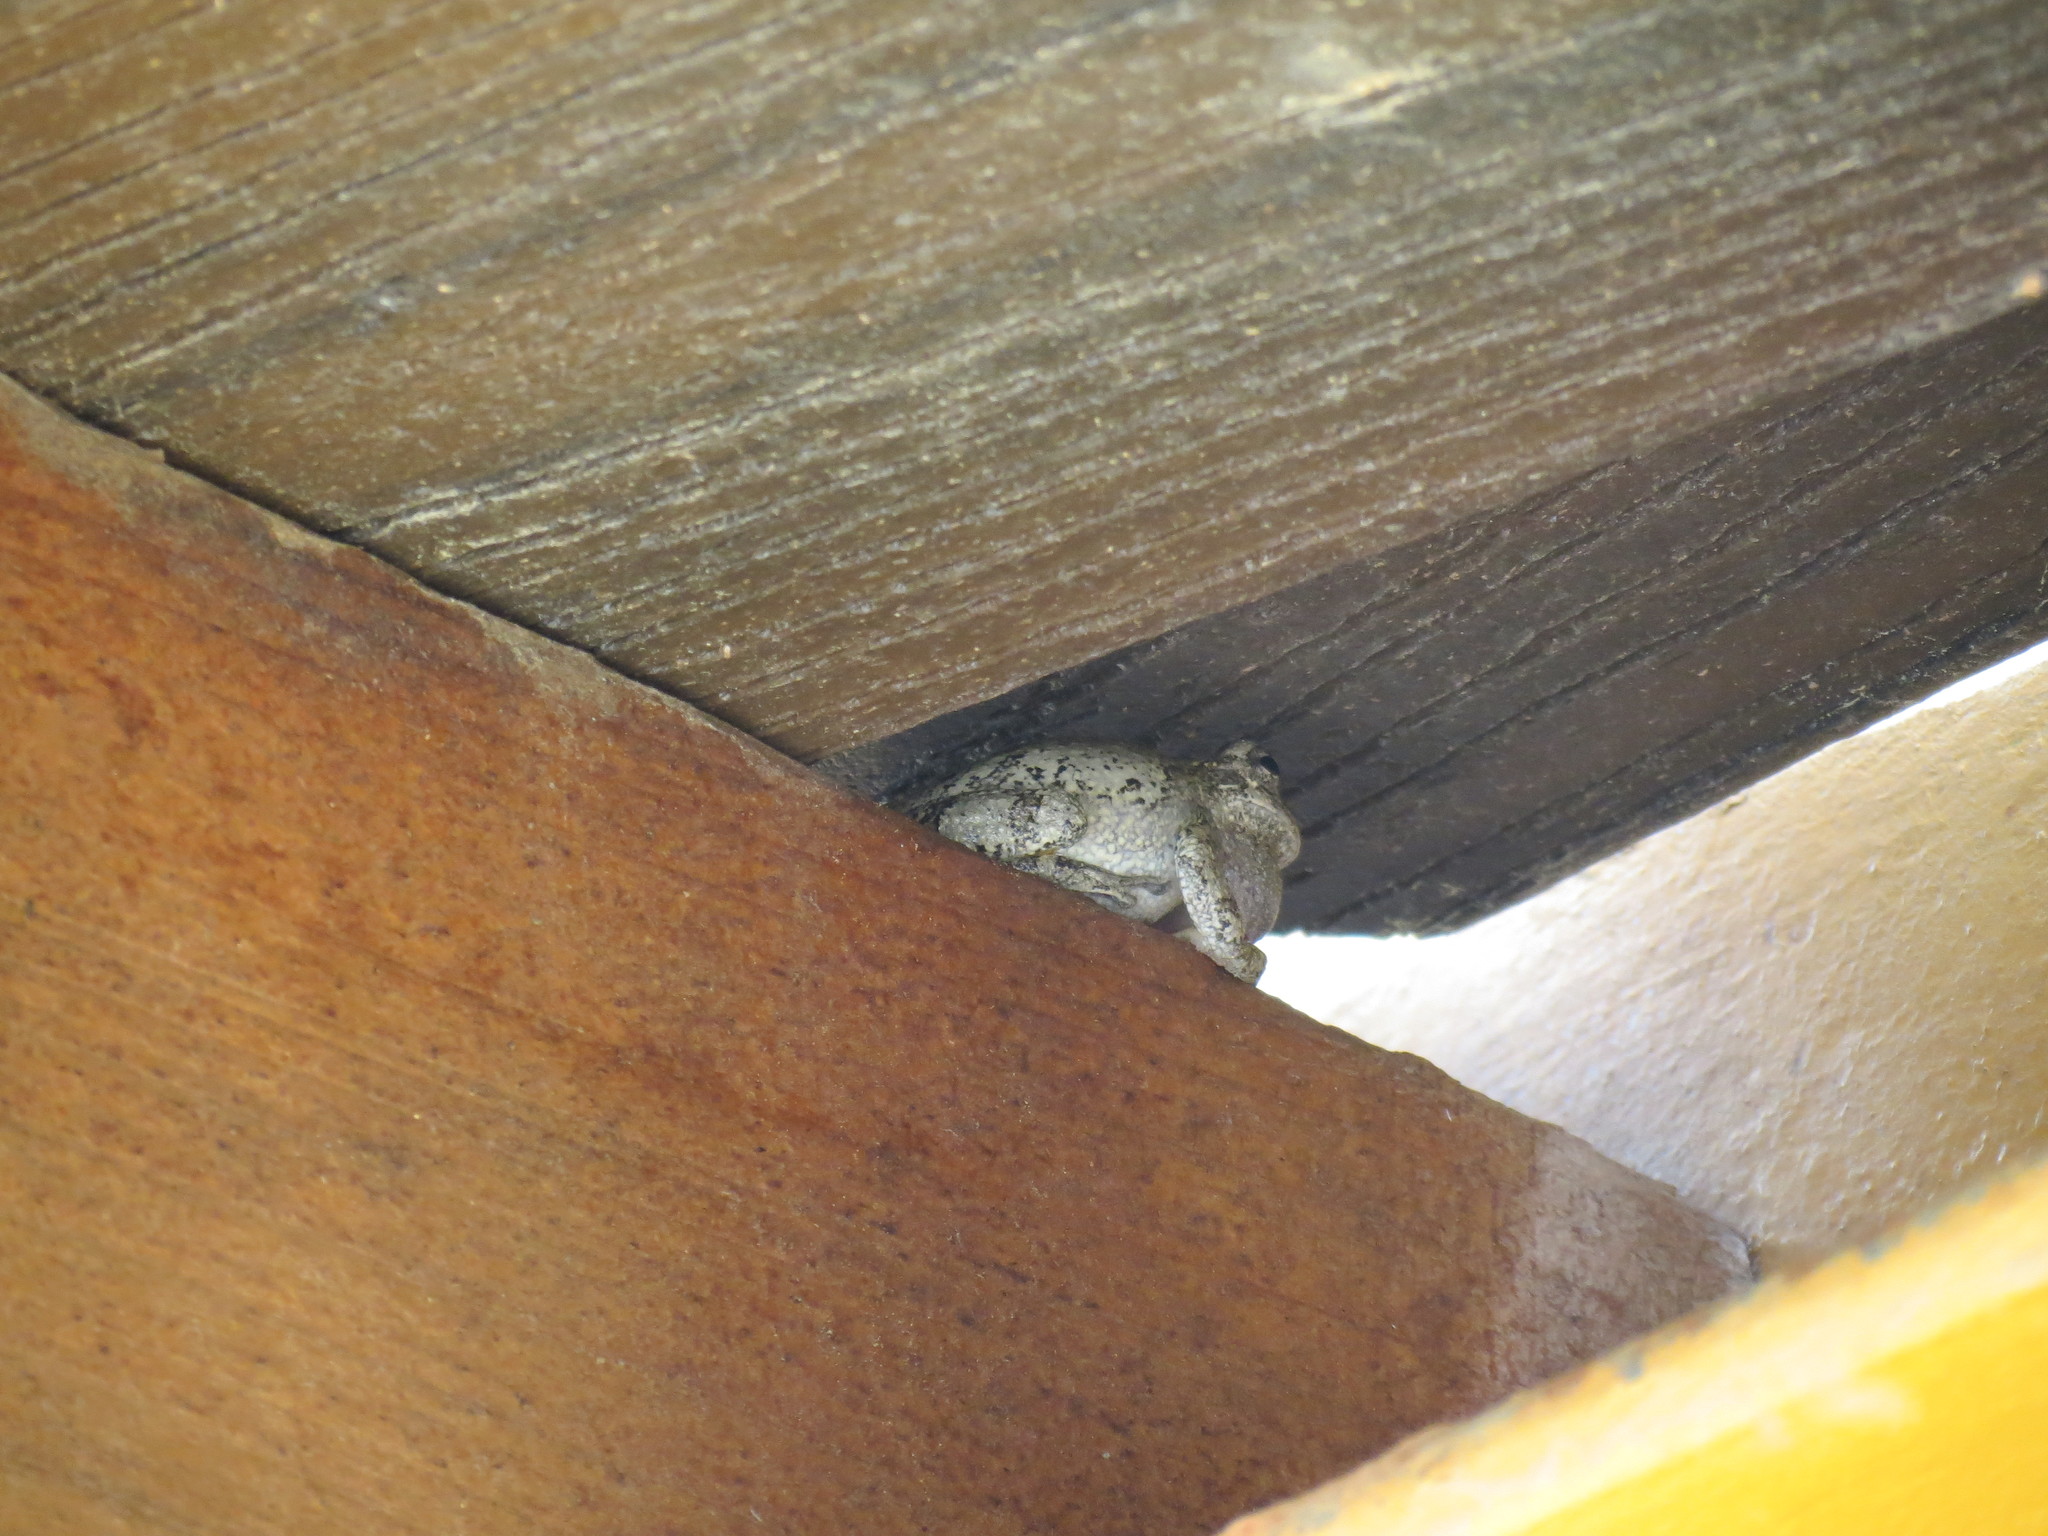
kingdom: Animalia
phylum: Chordata
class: Amphibia
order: Anura
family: Hylidae
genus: Dryophytes
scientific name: Dryophytes chrysoscelis
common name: Cope's gray treefrog
